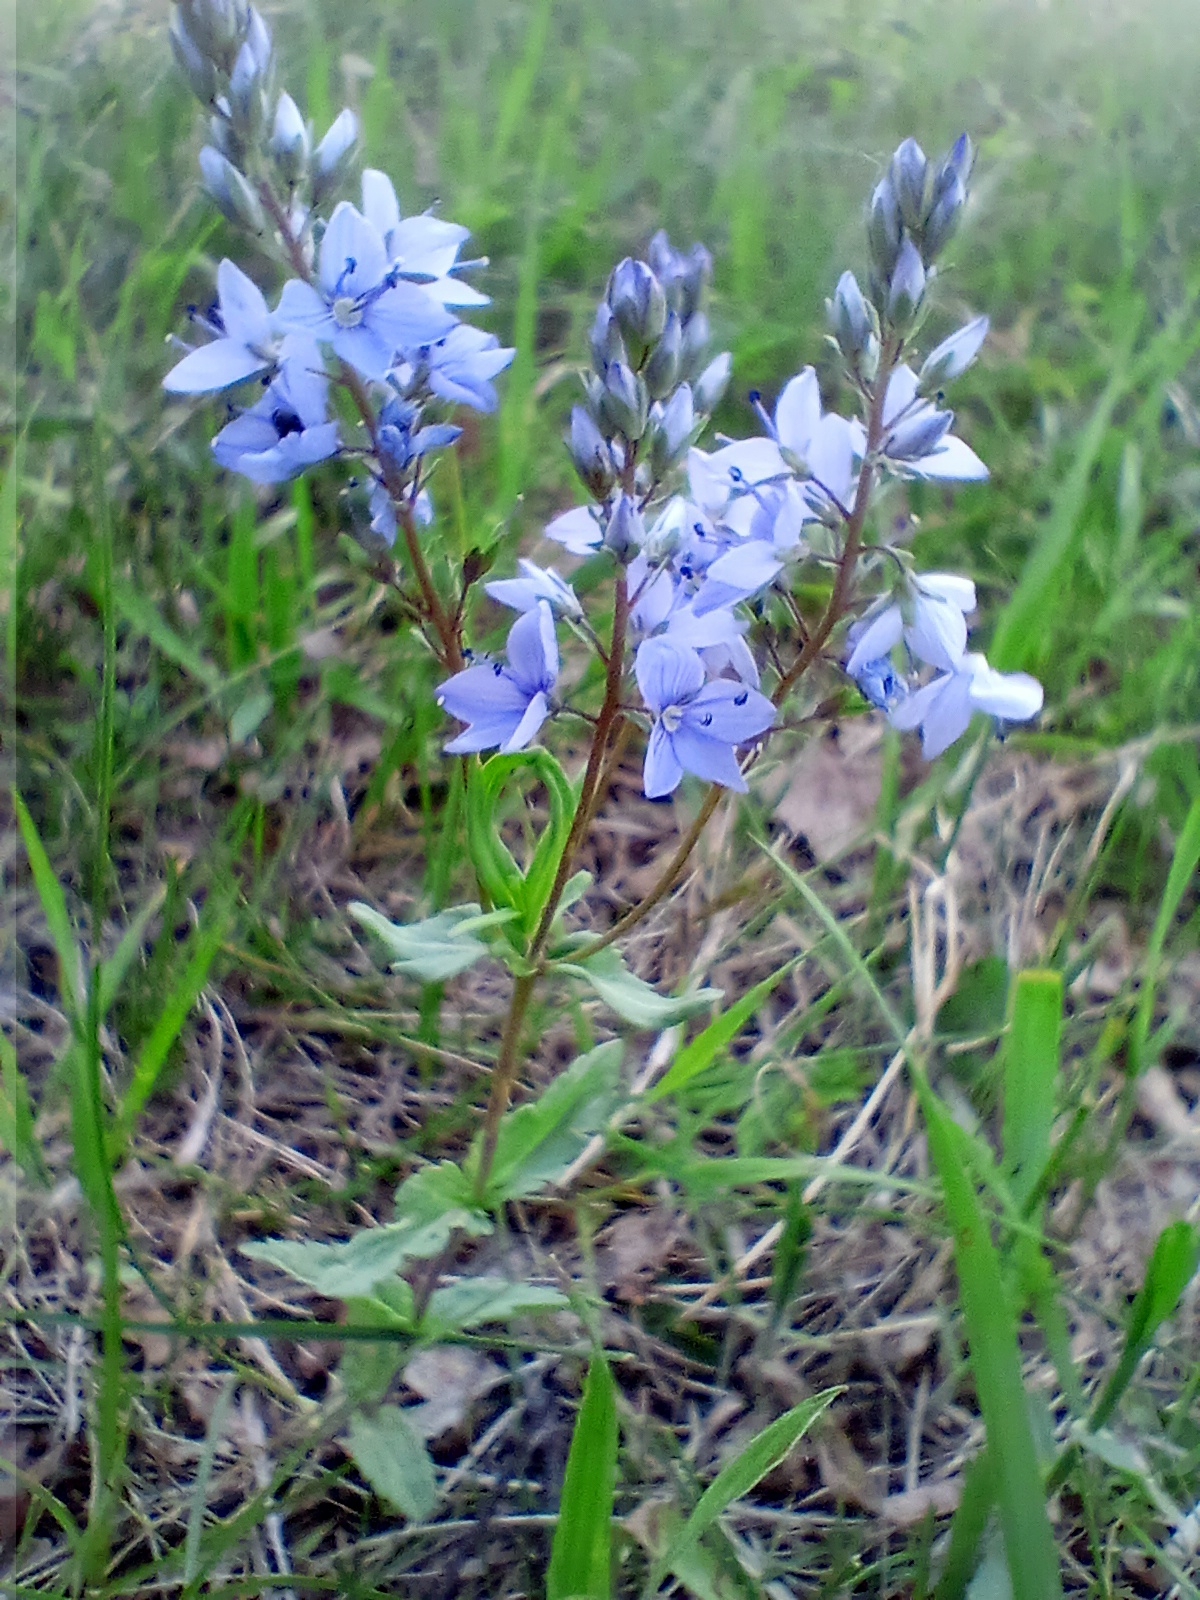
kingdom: Plantae
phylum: Tracheophyta
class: Magnoliopsida
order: Lamiales
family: Plantaginaceae
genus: Veronica
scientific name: Veronica prostrata
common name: Prostrate speedwell
